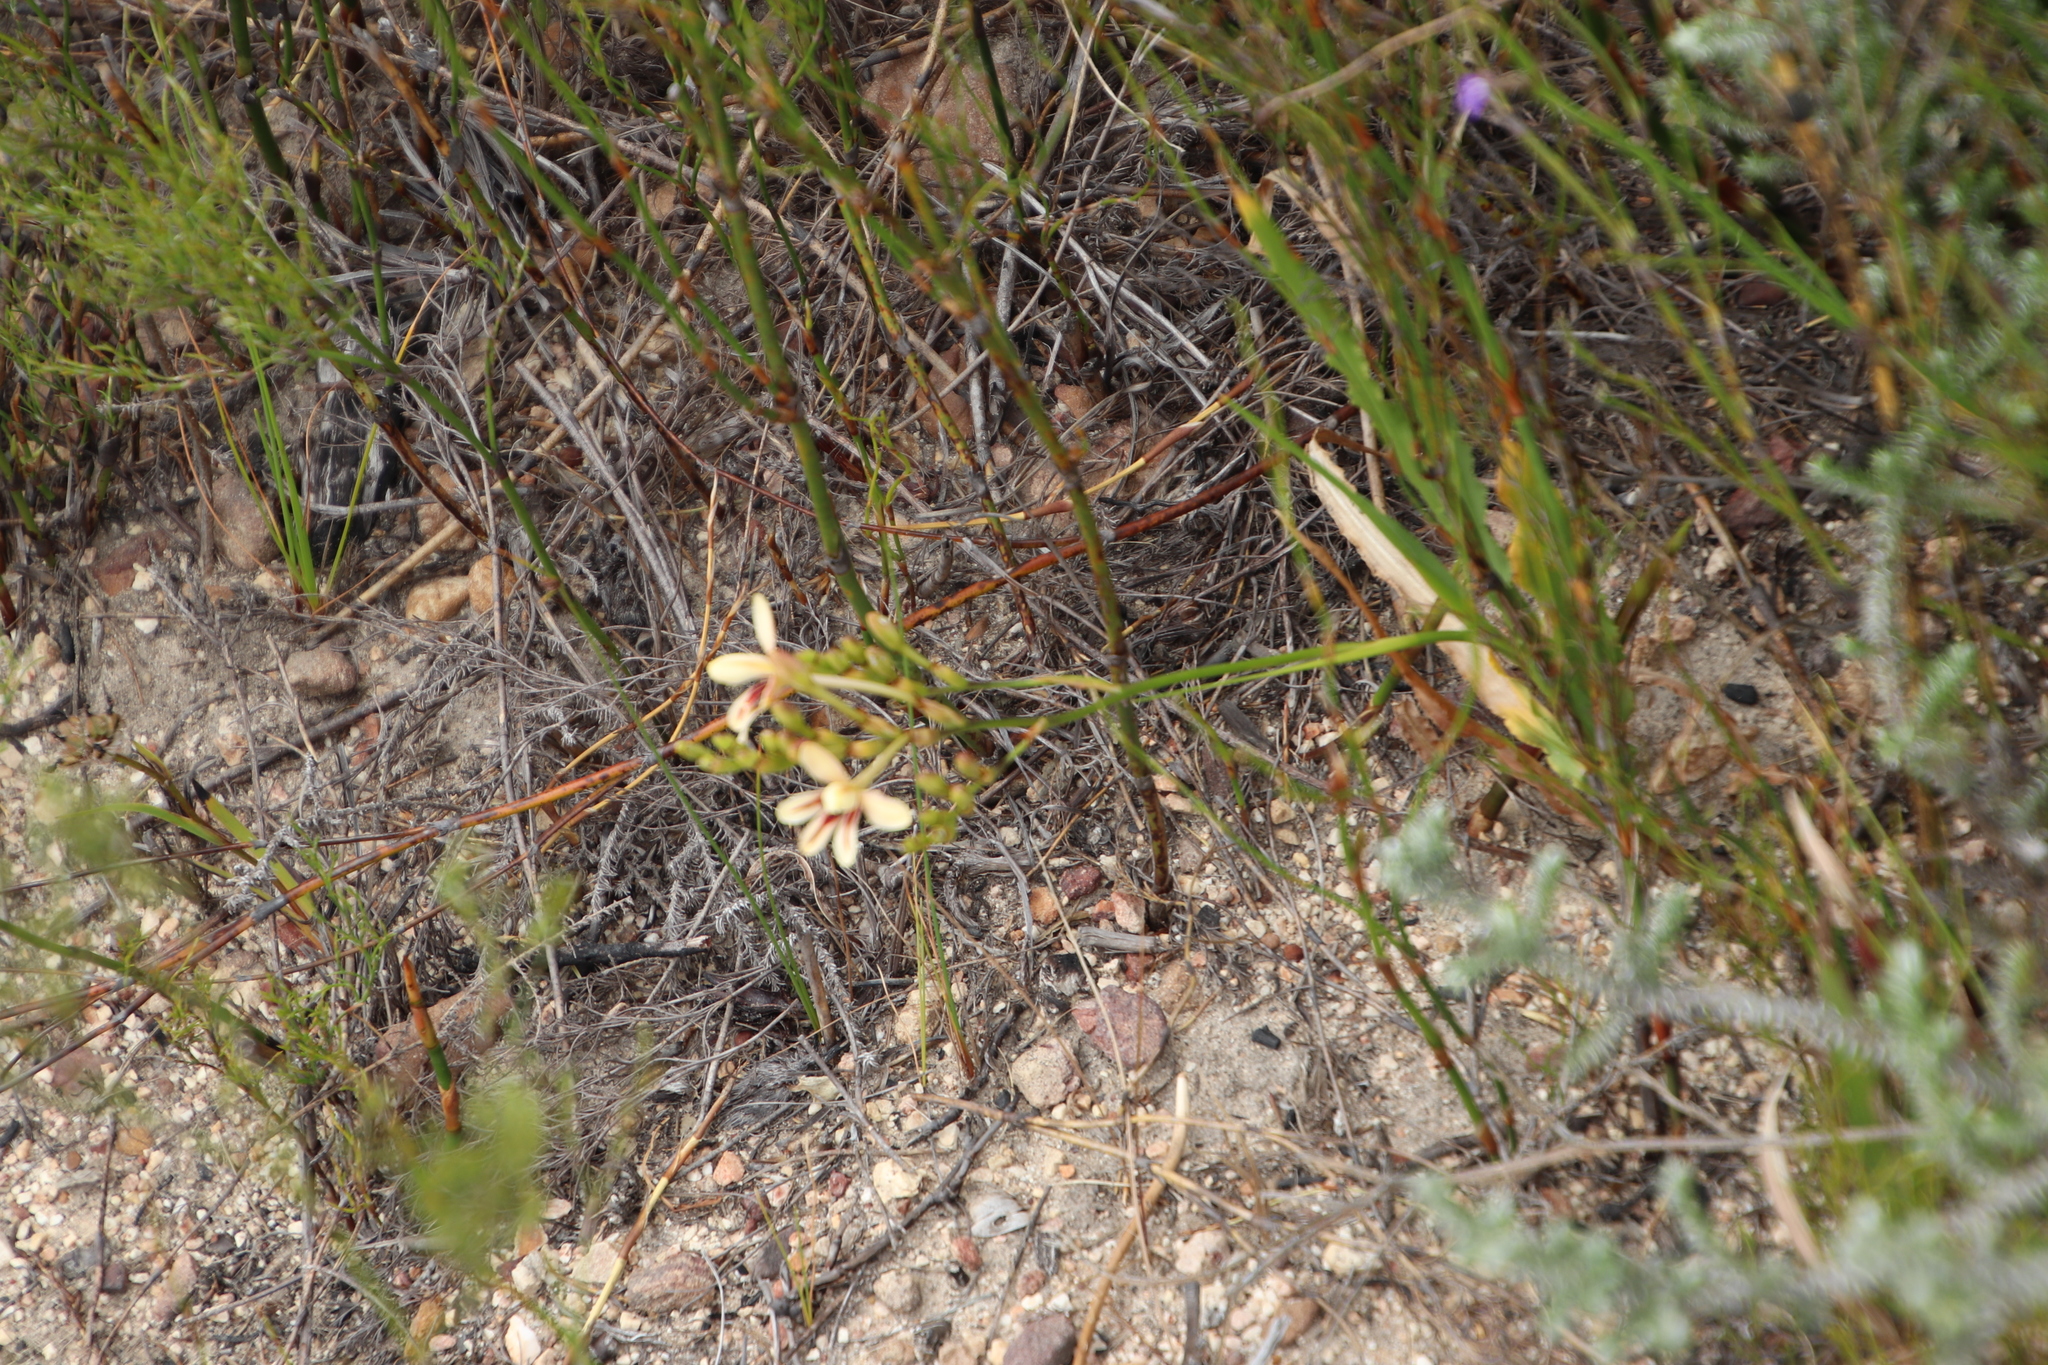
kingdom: Plantae
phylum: Tracheophyta
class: Liliopsida
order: Asparagales
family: Iridaceae
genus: Tritonia
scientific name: Tritonia undulata
